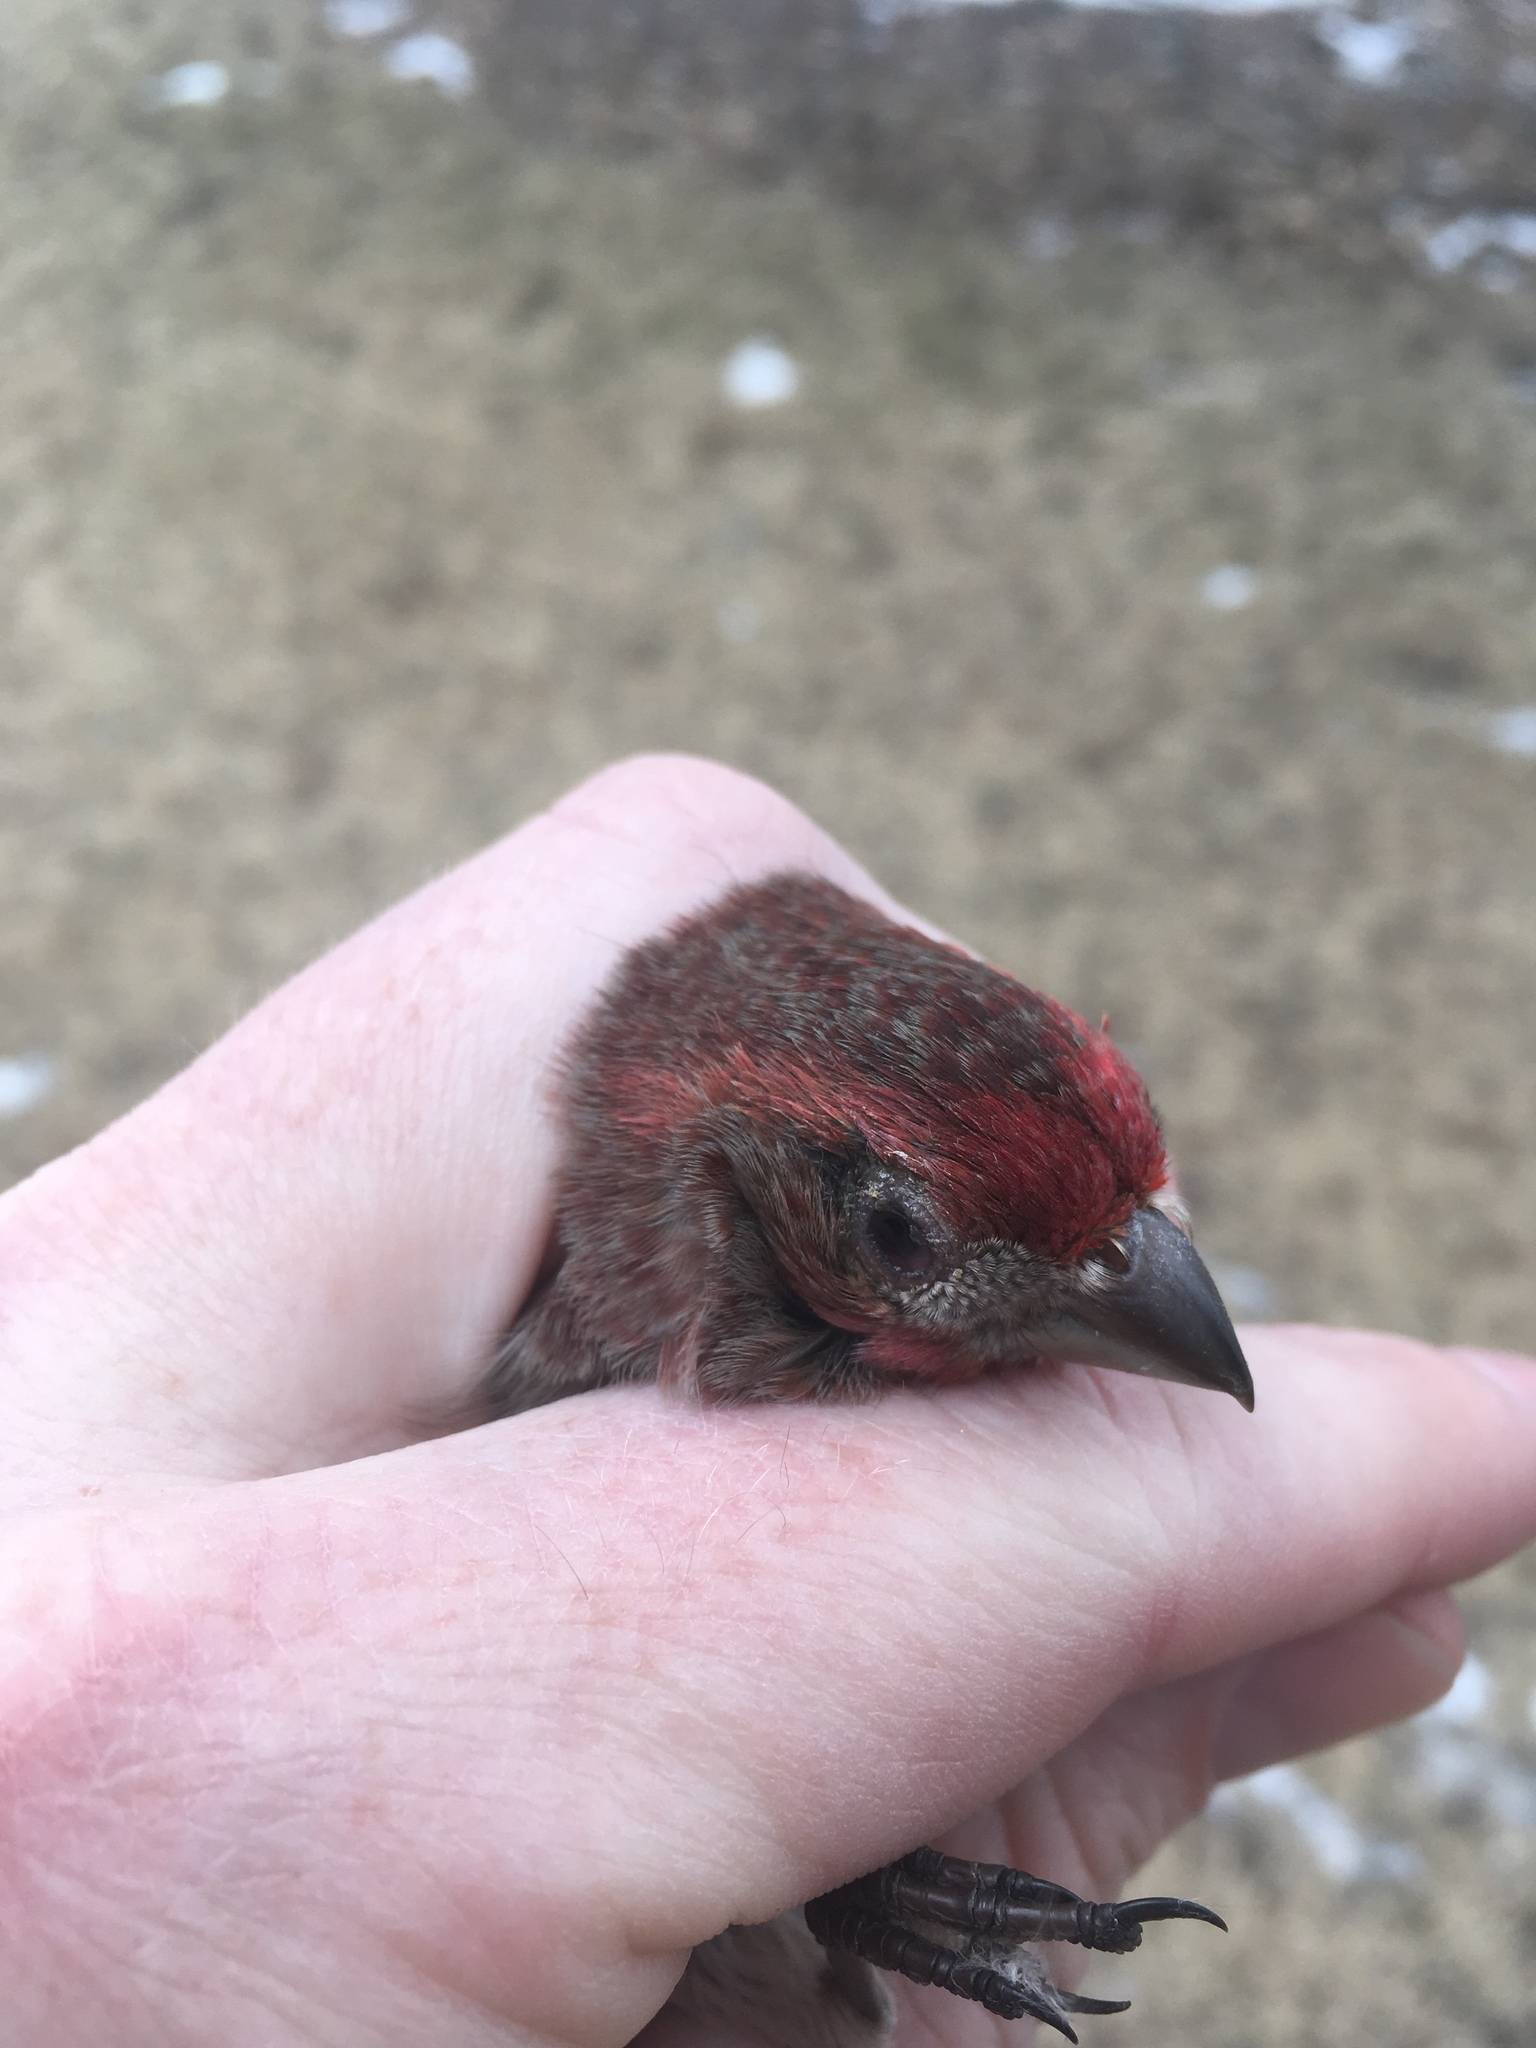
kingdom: Animalia
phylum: Chordata
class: Aves
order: Passeriformes
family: Fringillidae
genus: Haemorhous
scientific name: Haemorhous mexicanus
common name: House finch
